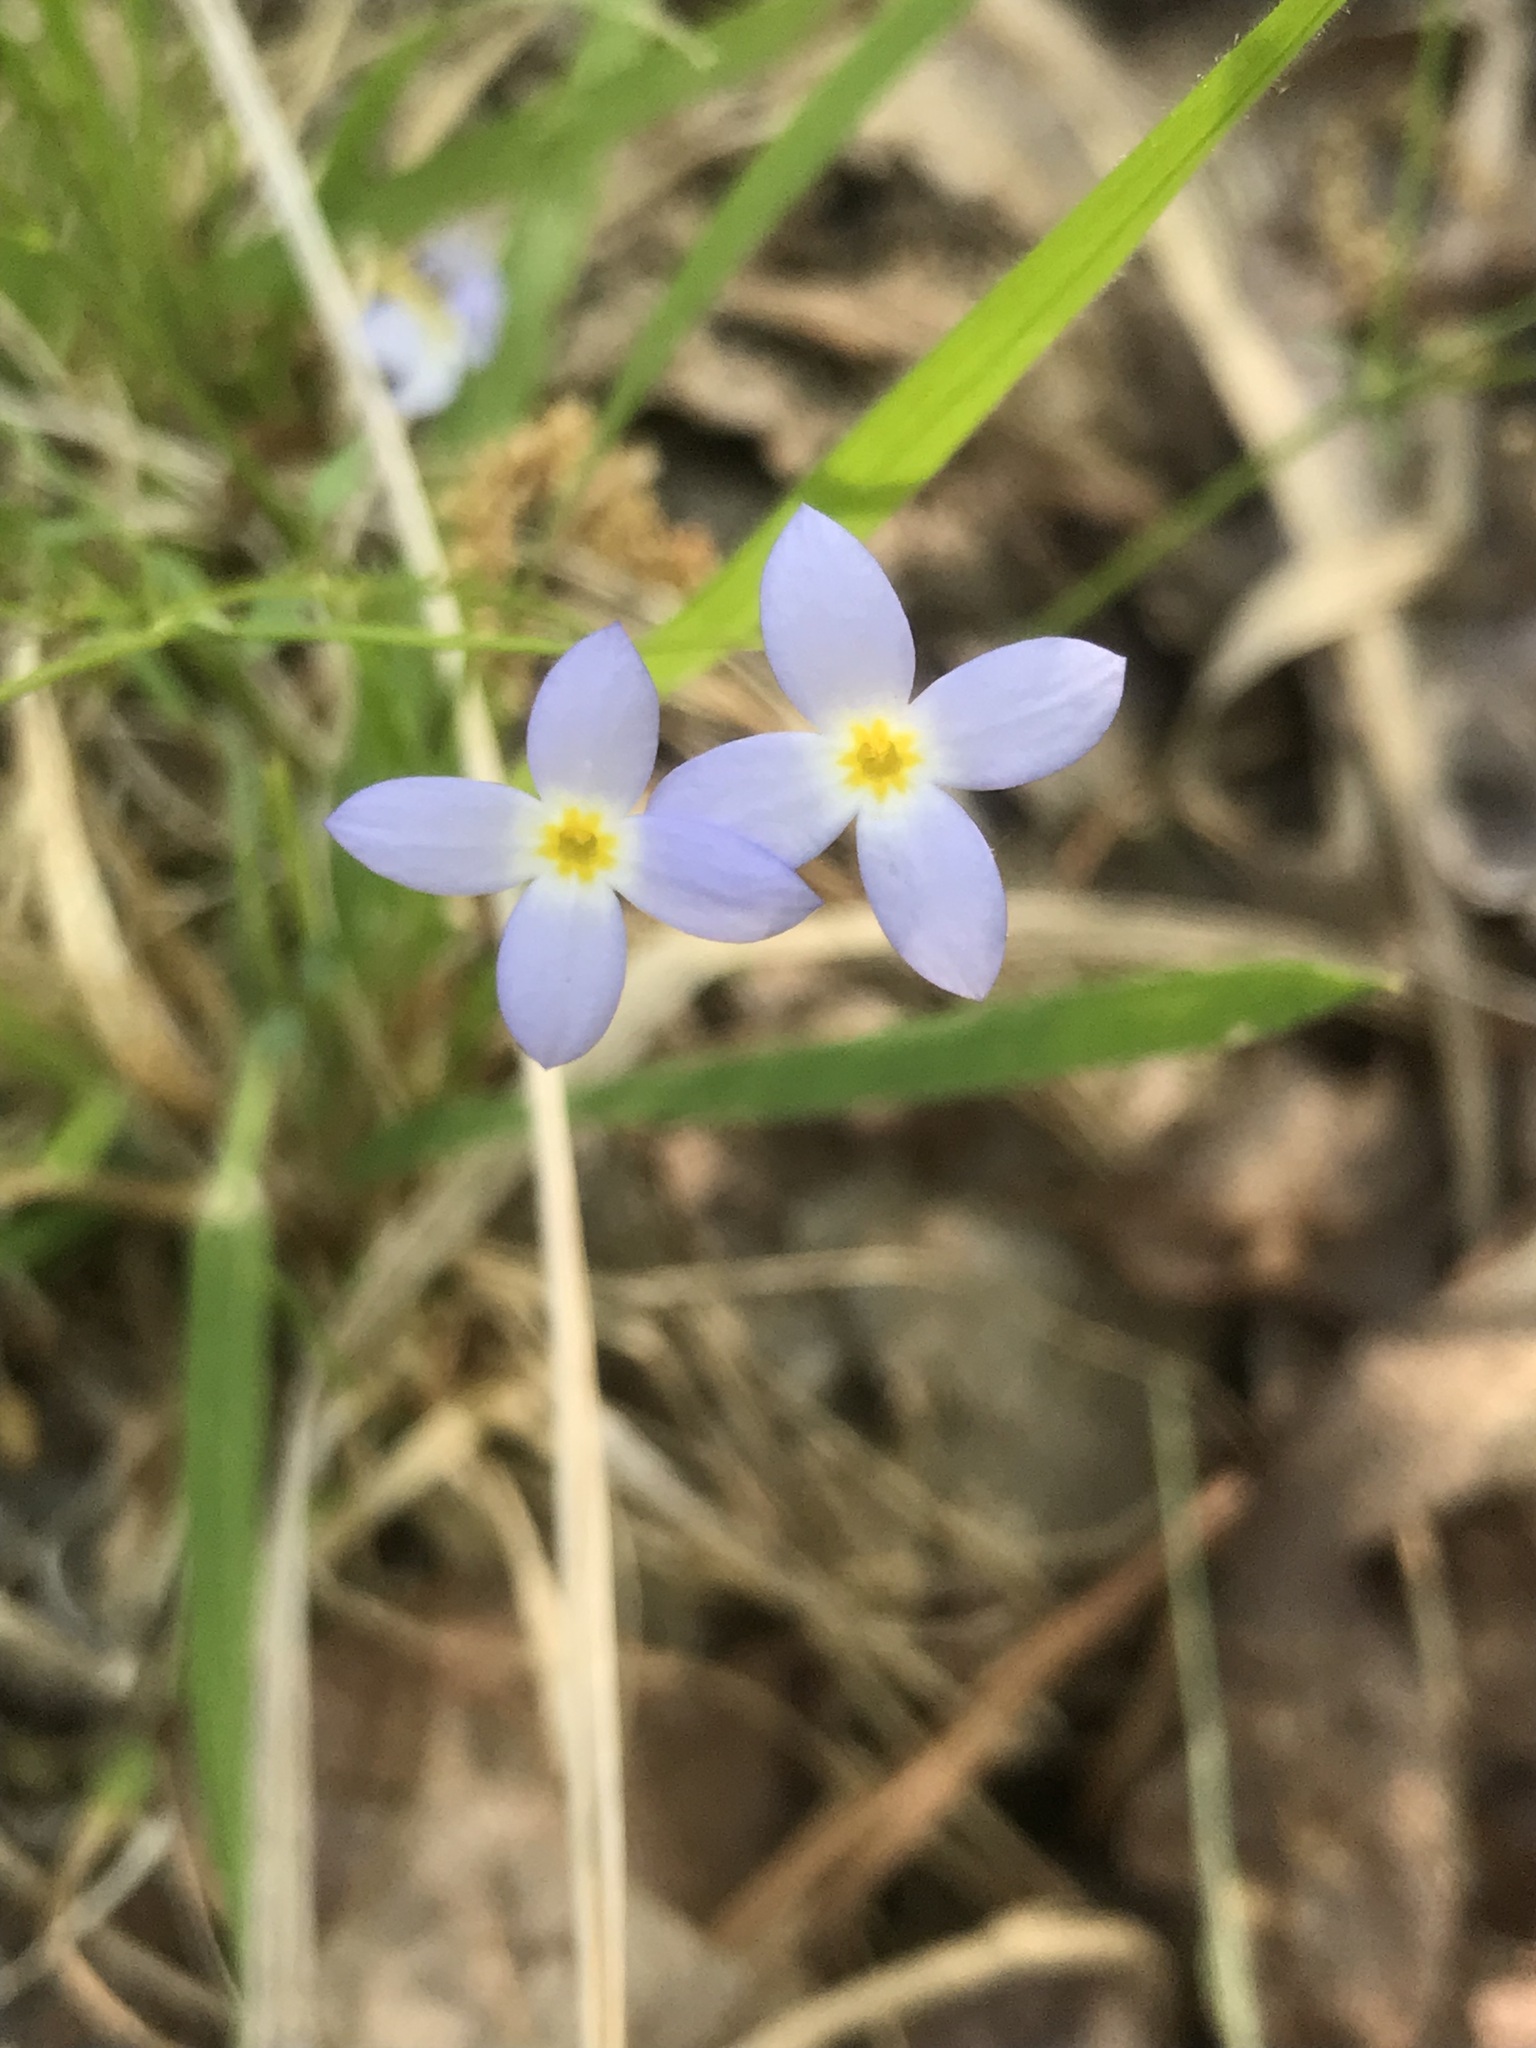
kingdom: Plantae
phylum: Tracheophyta
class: Magnoliopsida
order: Gentianales
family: Rubiaceae
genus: Houstonia
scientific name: Houstonia caerulea
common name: Bluets
